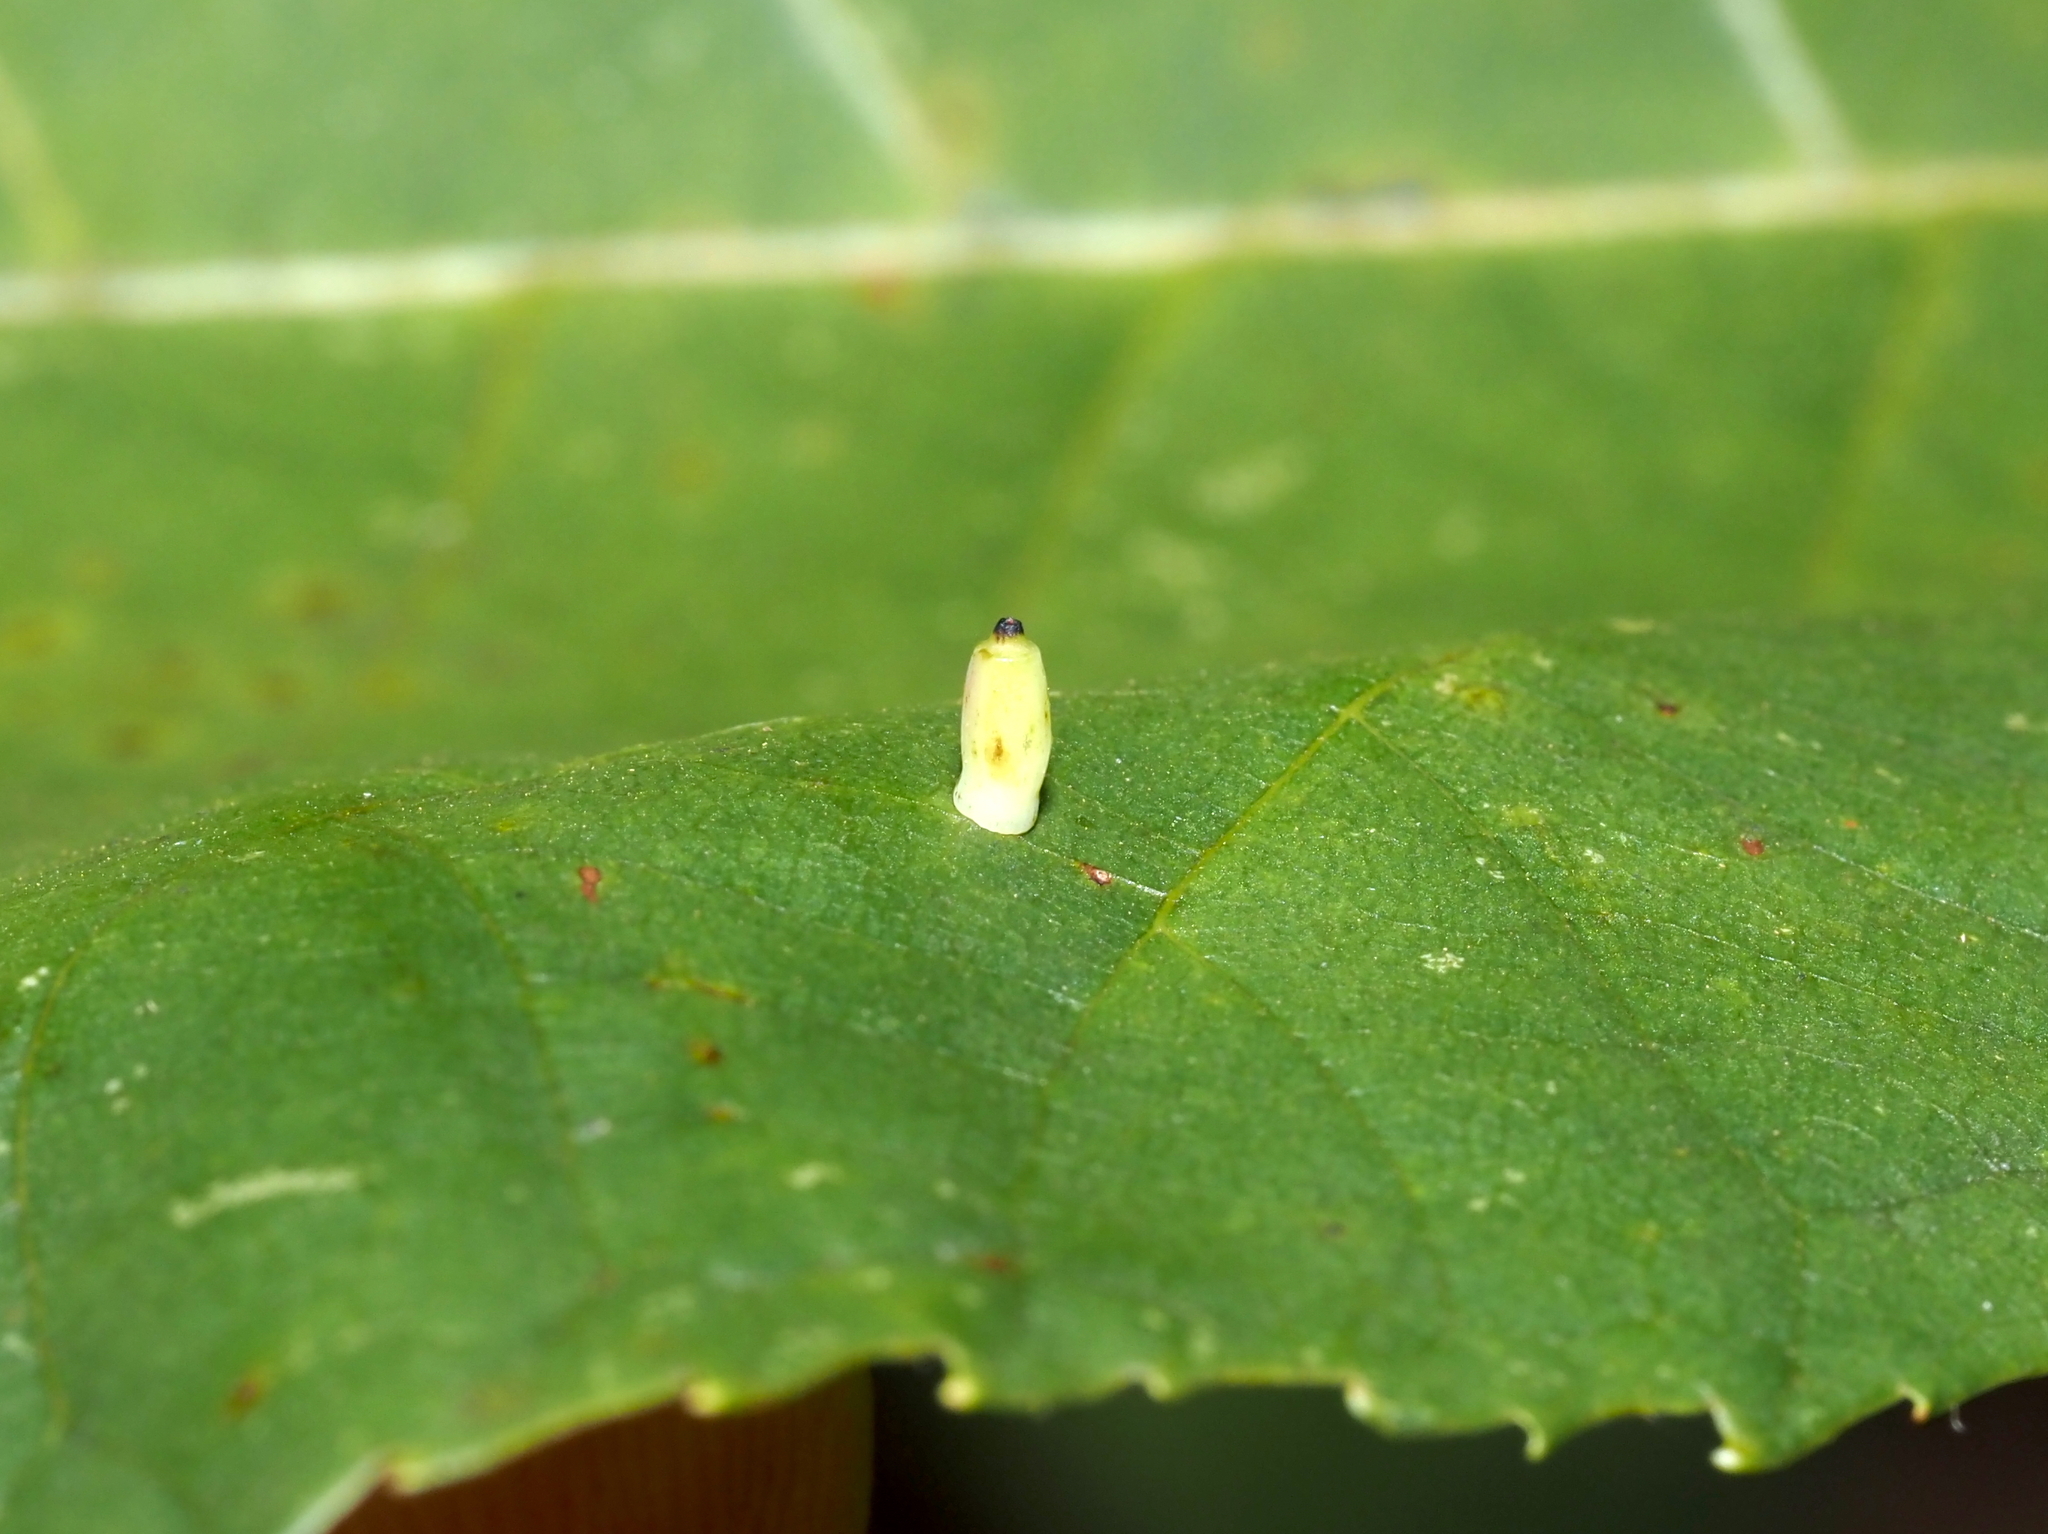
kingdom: Animalia
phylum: Arthropoda
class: Insecta
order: Diptera
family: Cecidomyiidae
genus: Caryomyia
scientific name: Caryomyia urnula
